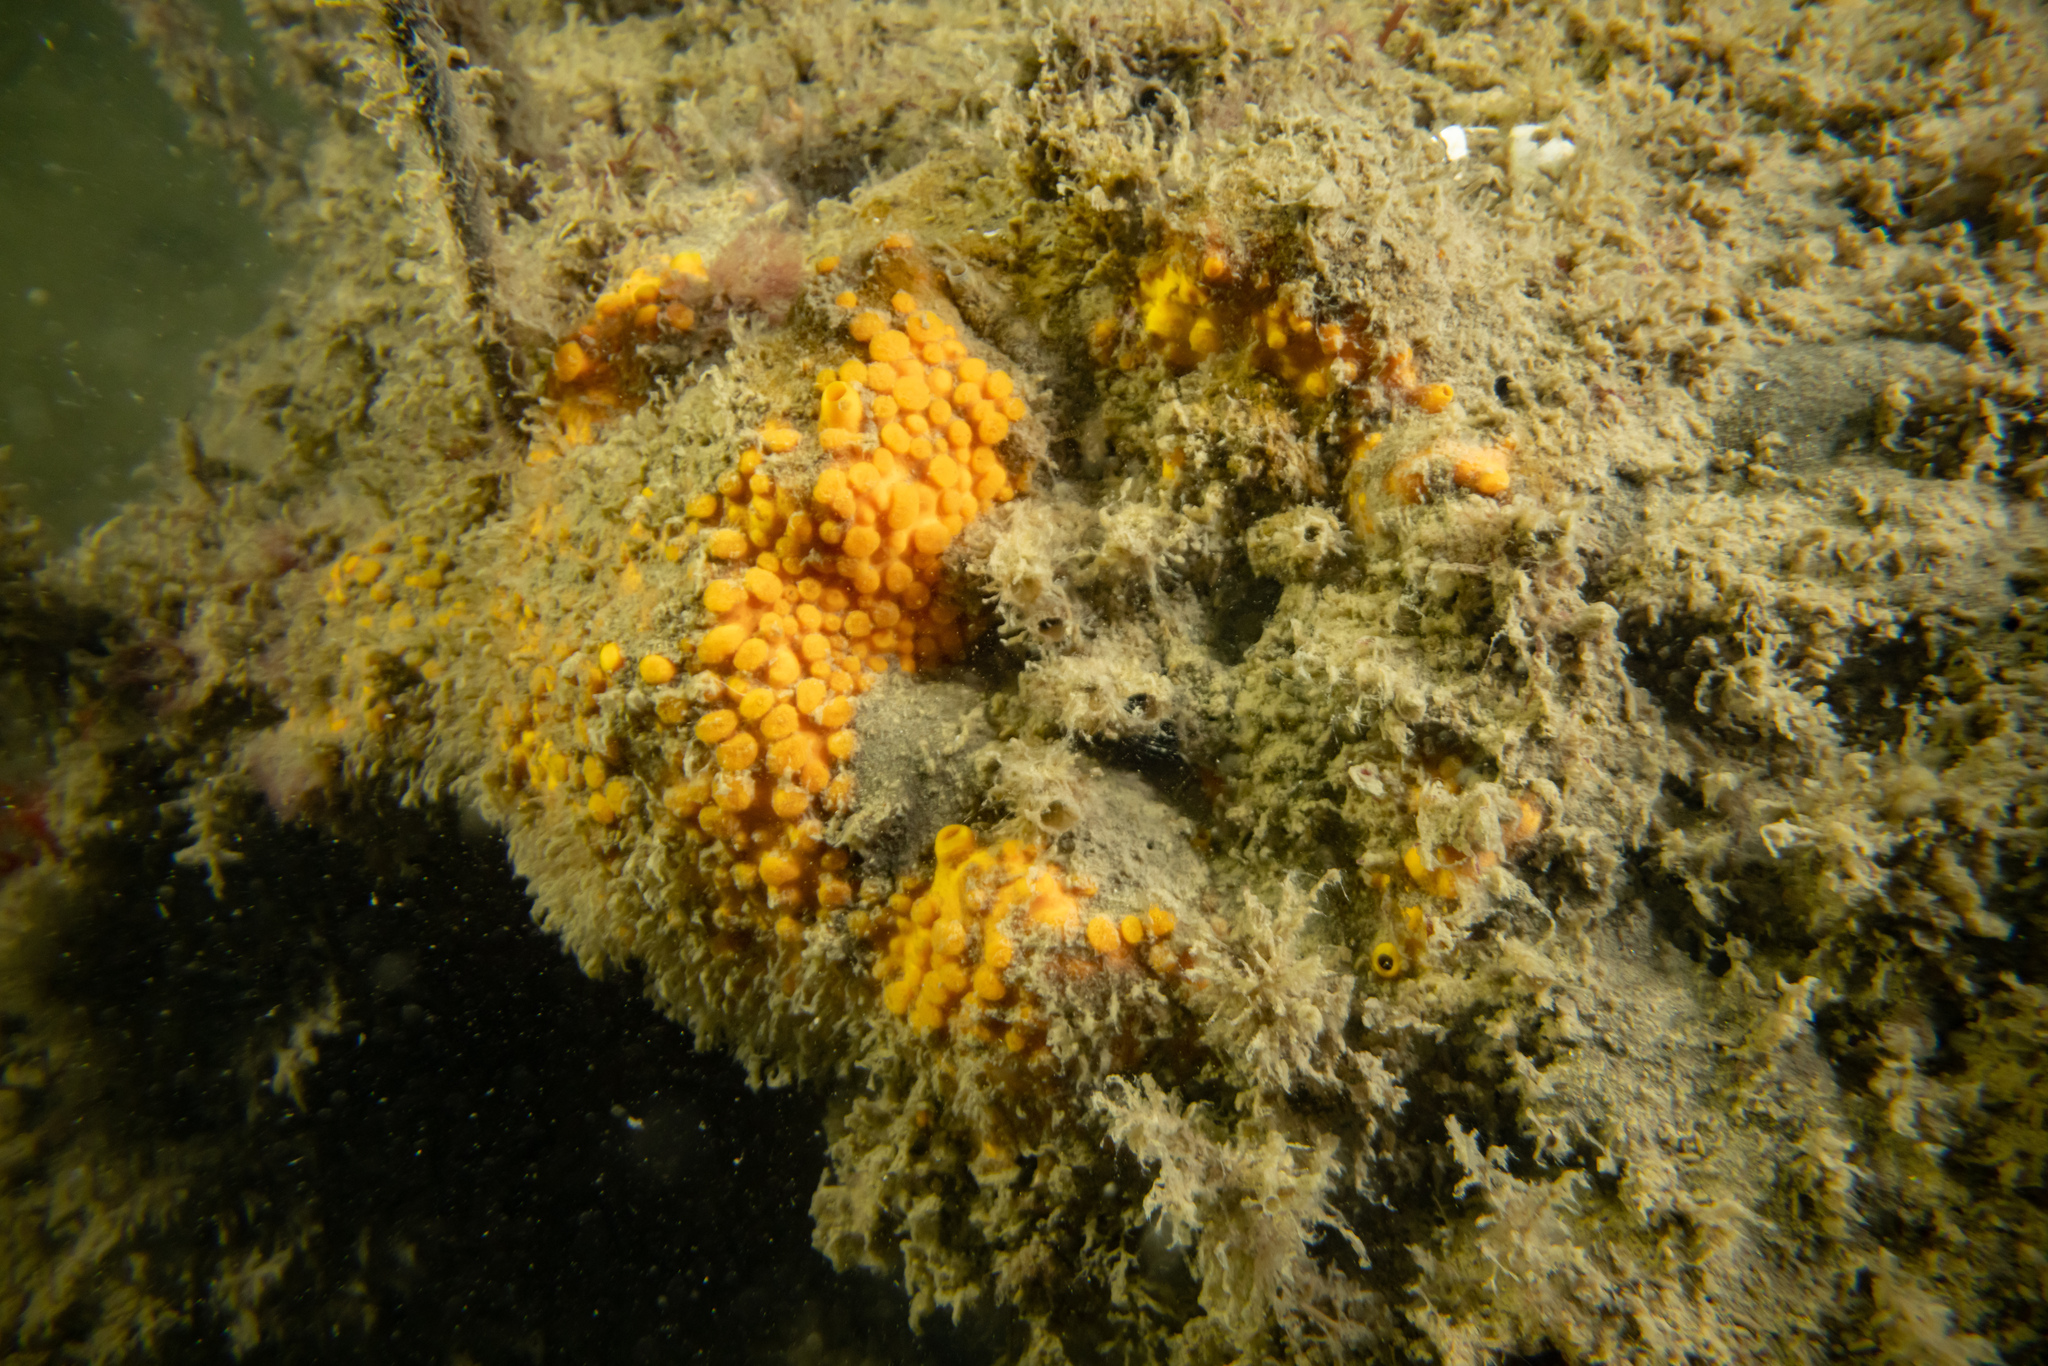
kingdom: Animalia
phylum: Porifera
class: Demospongiae
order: Clionaida
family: Clionaidae
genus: Cliona
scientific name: Cliona celata
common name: Boring sponge
